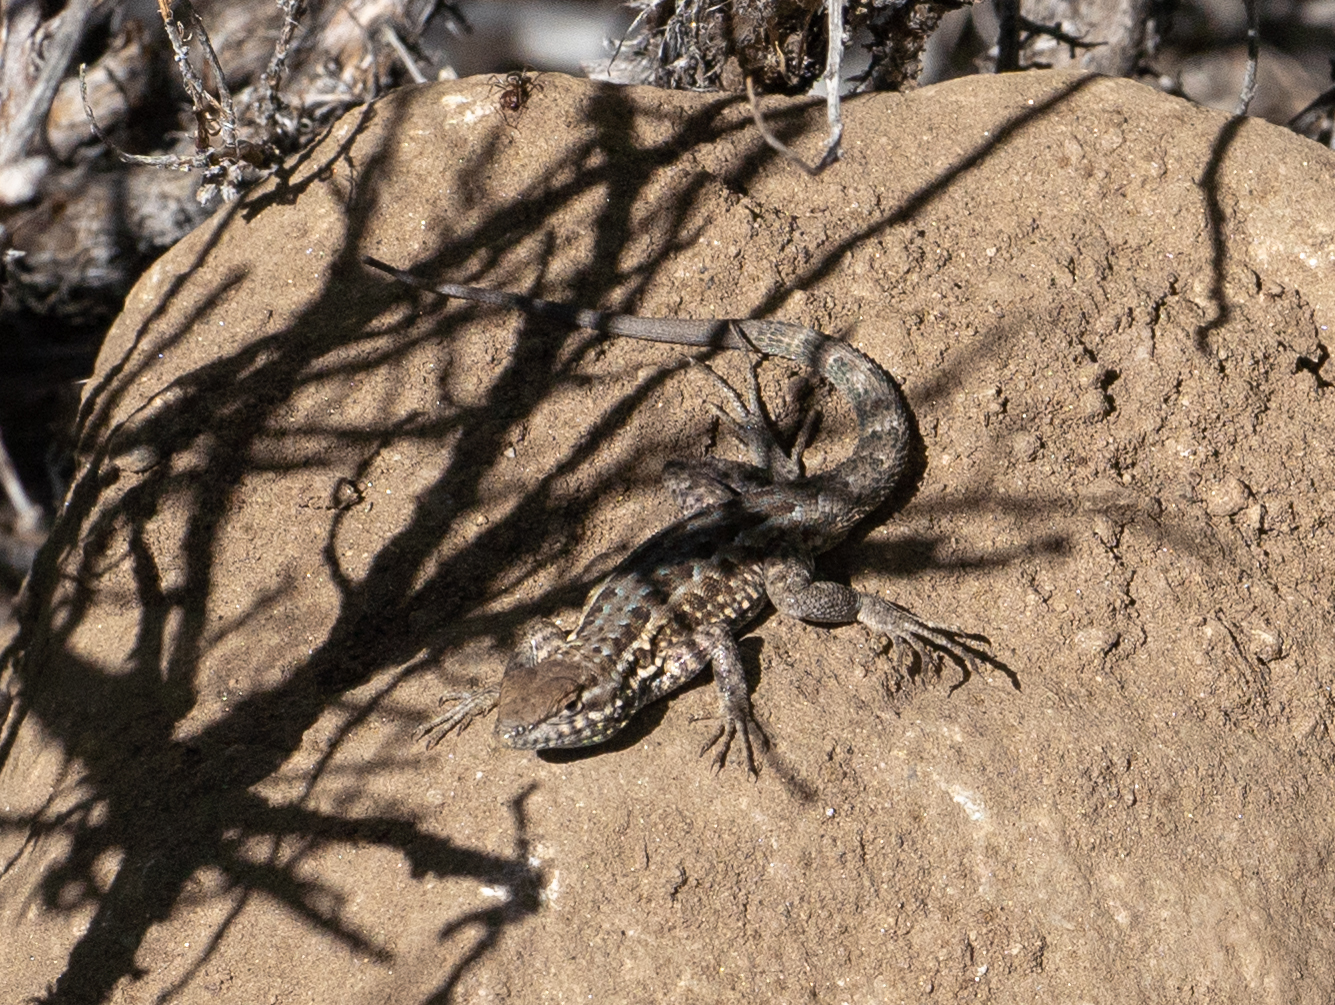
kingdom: Animalia
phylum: Chordata
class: Squamata
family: Phrynosomatidae
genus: Uta
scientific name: Uta stansburiana
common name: Side-blotched lizard
